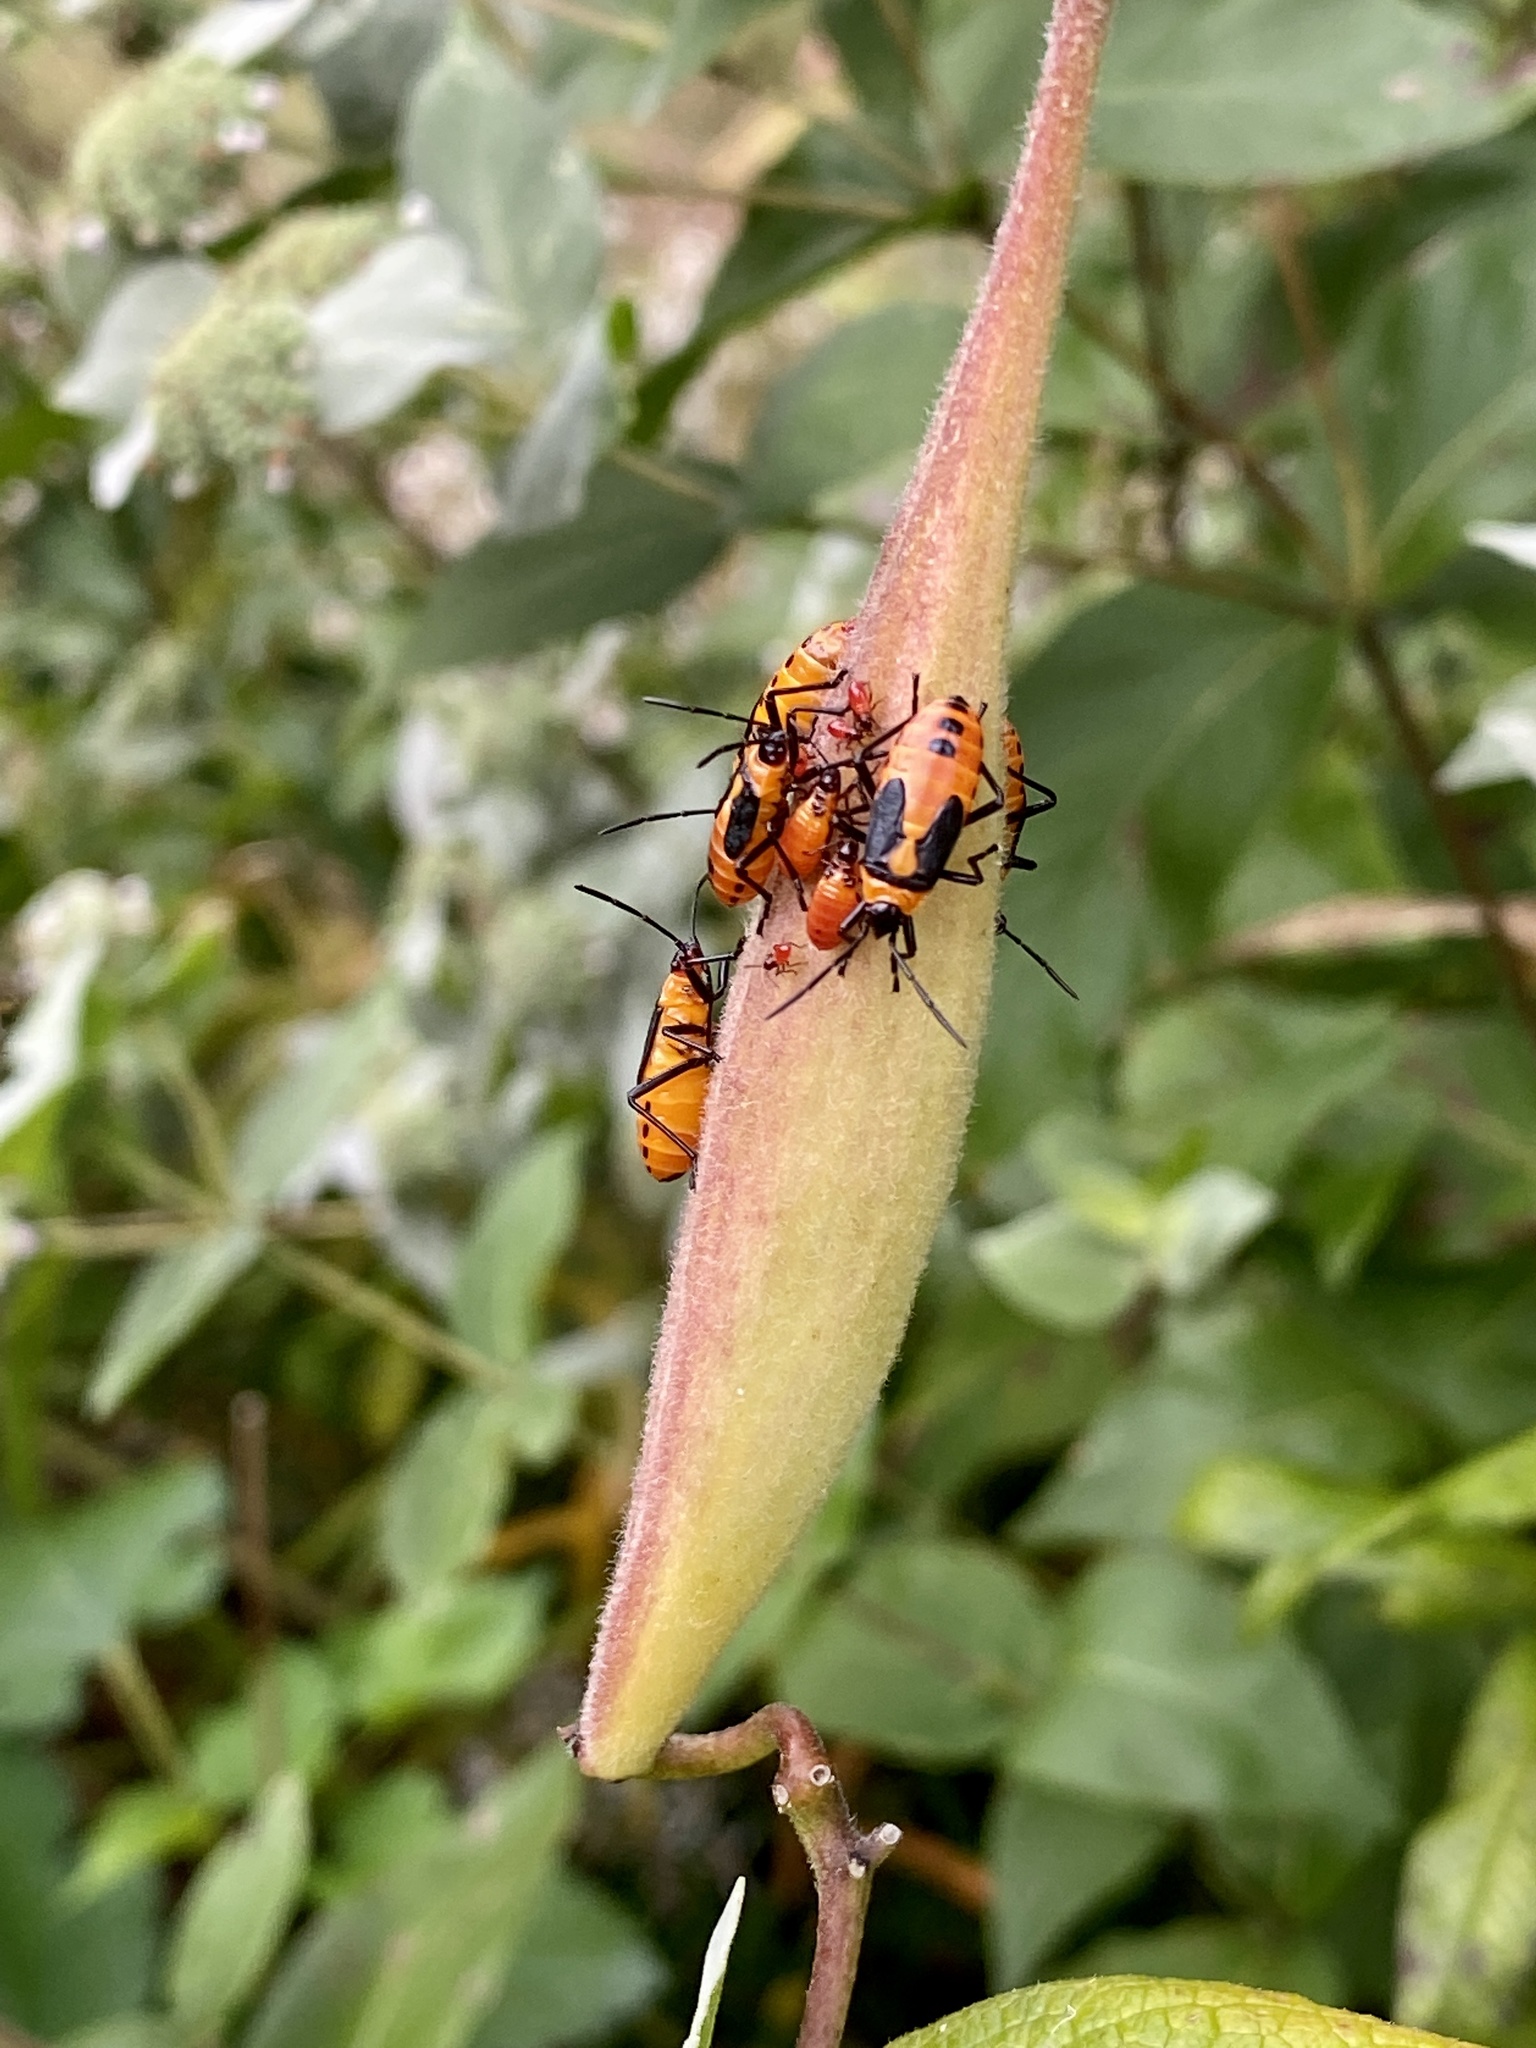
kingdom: Animalia
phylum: Arthropoda
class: Insecta
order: Hemiptera
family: Lygaeidae
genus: Oncopeltus
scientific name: Oncopeltus fasciatus
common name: Large milkweed bug
